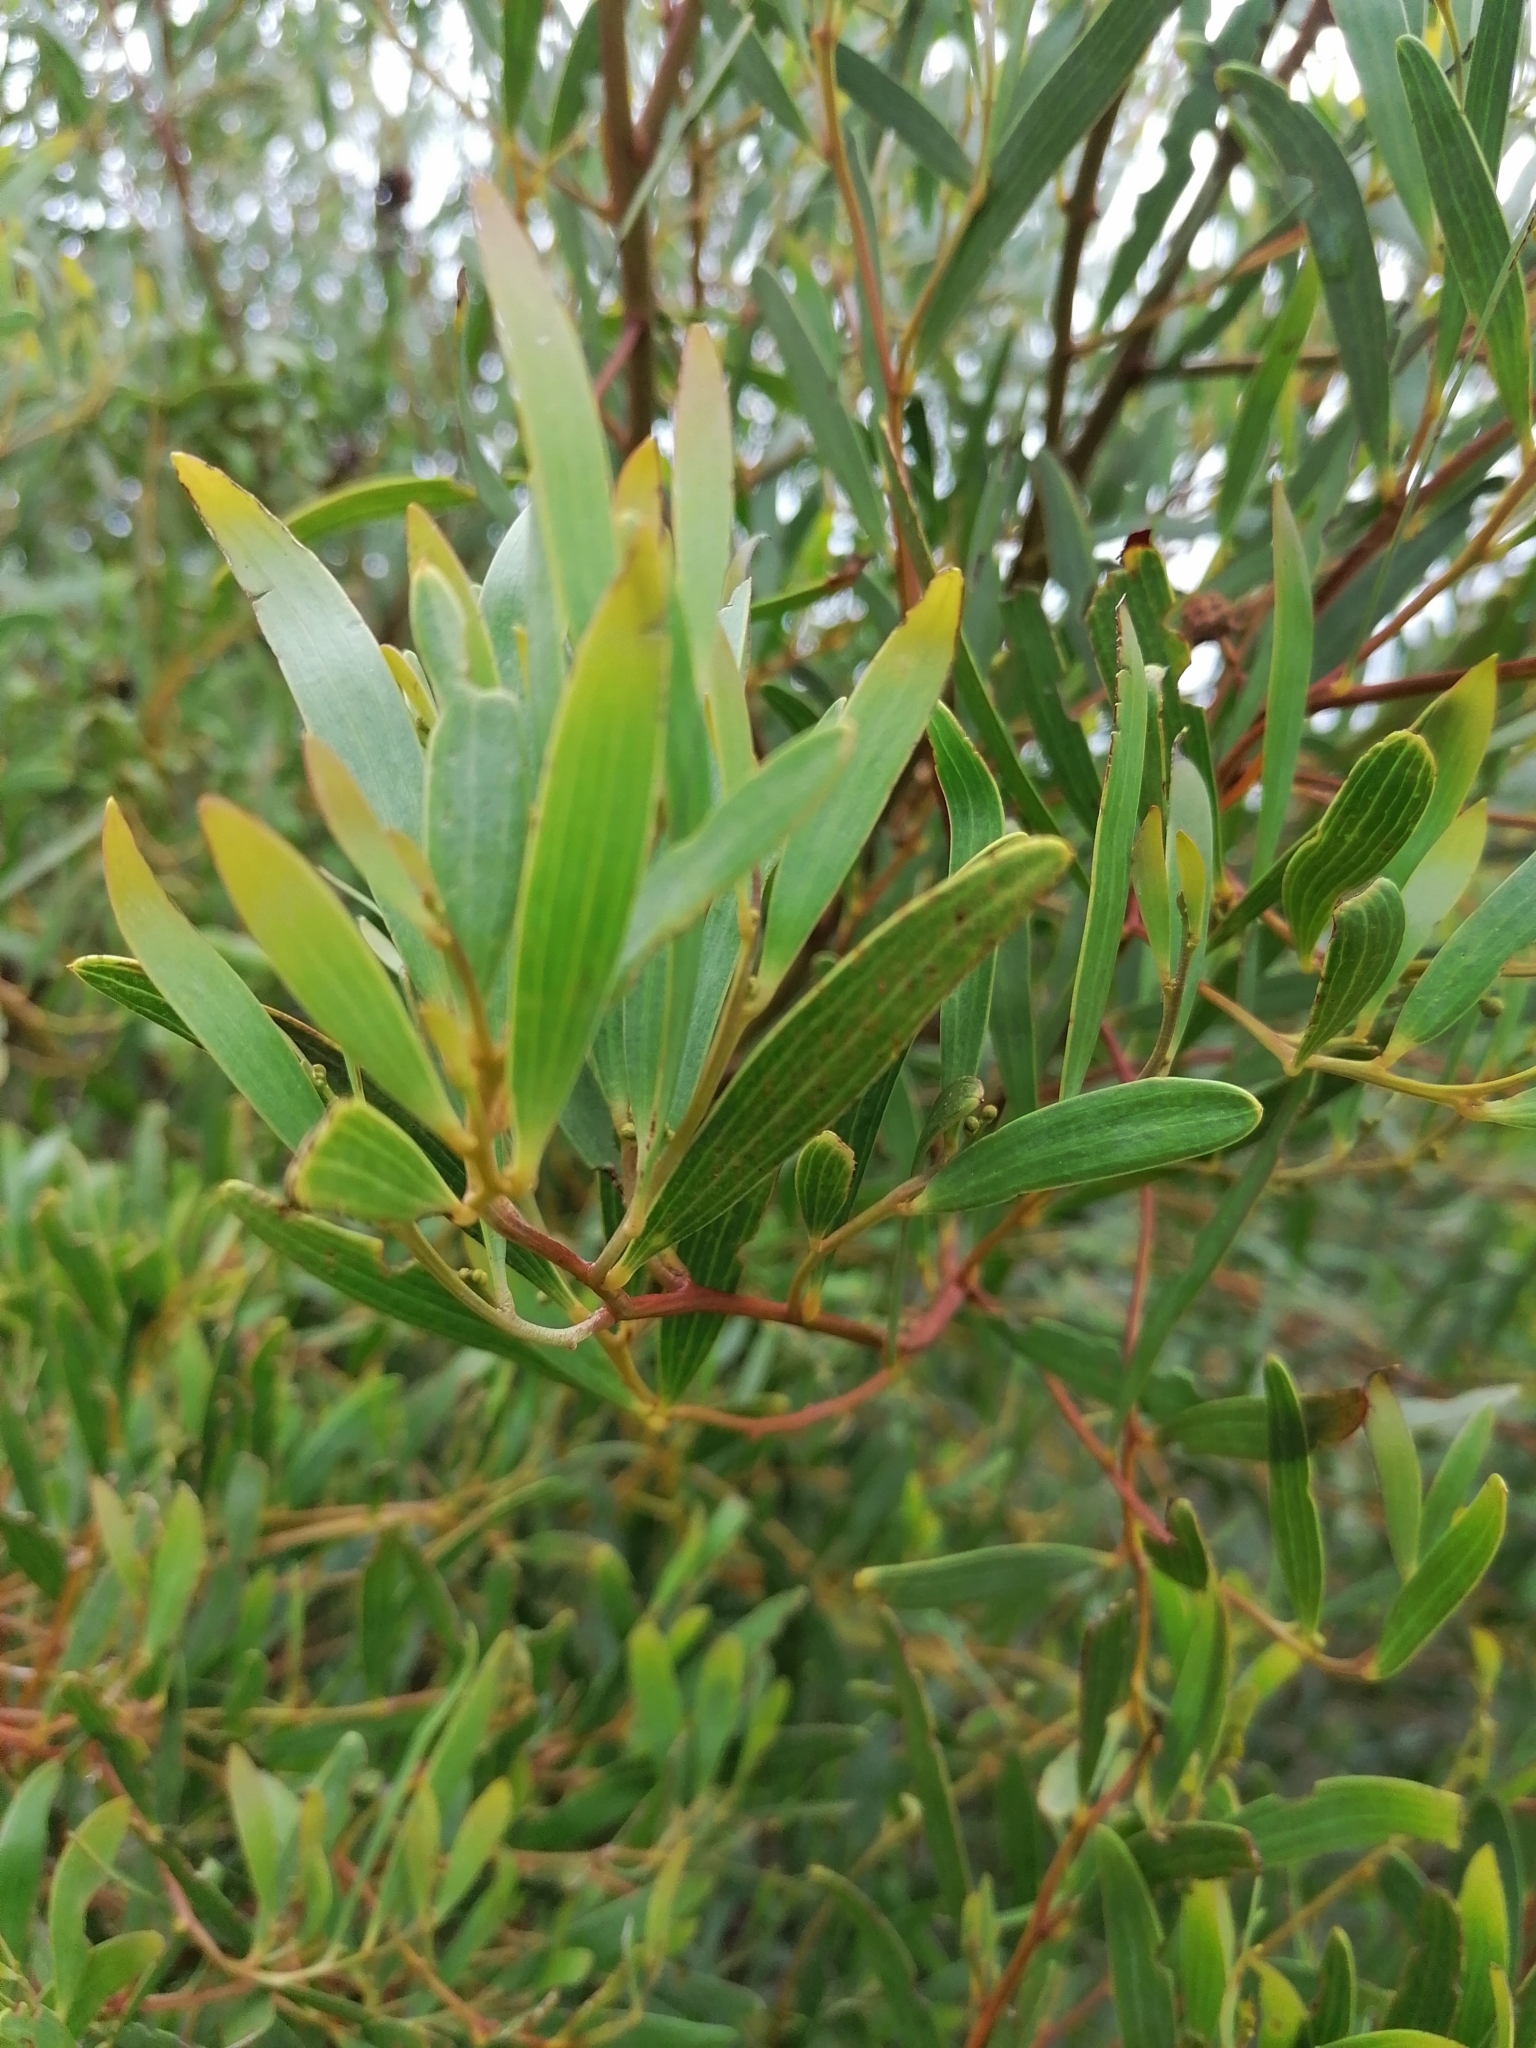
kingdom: Plantae
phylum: Tracheophyta
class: Magnoliopsida
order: Fabales
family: Fabaceae
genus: Acacia
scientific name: Acacia cyclops
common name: Coastal wattle
